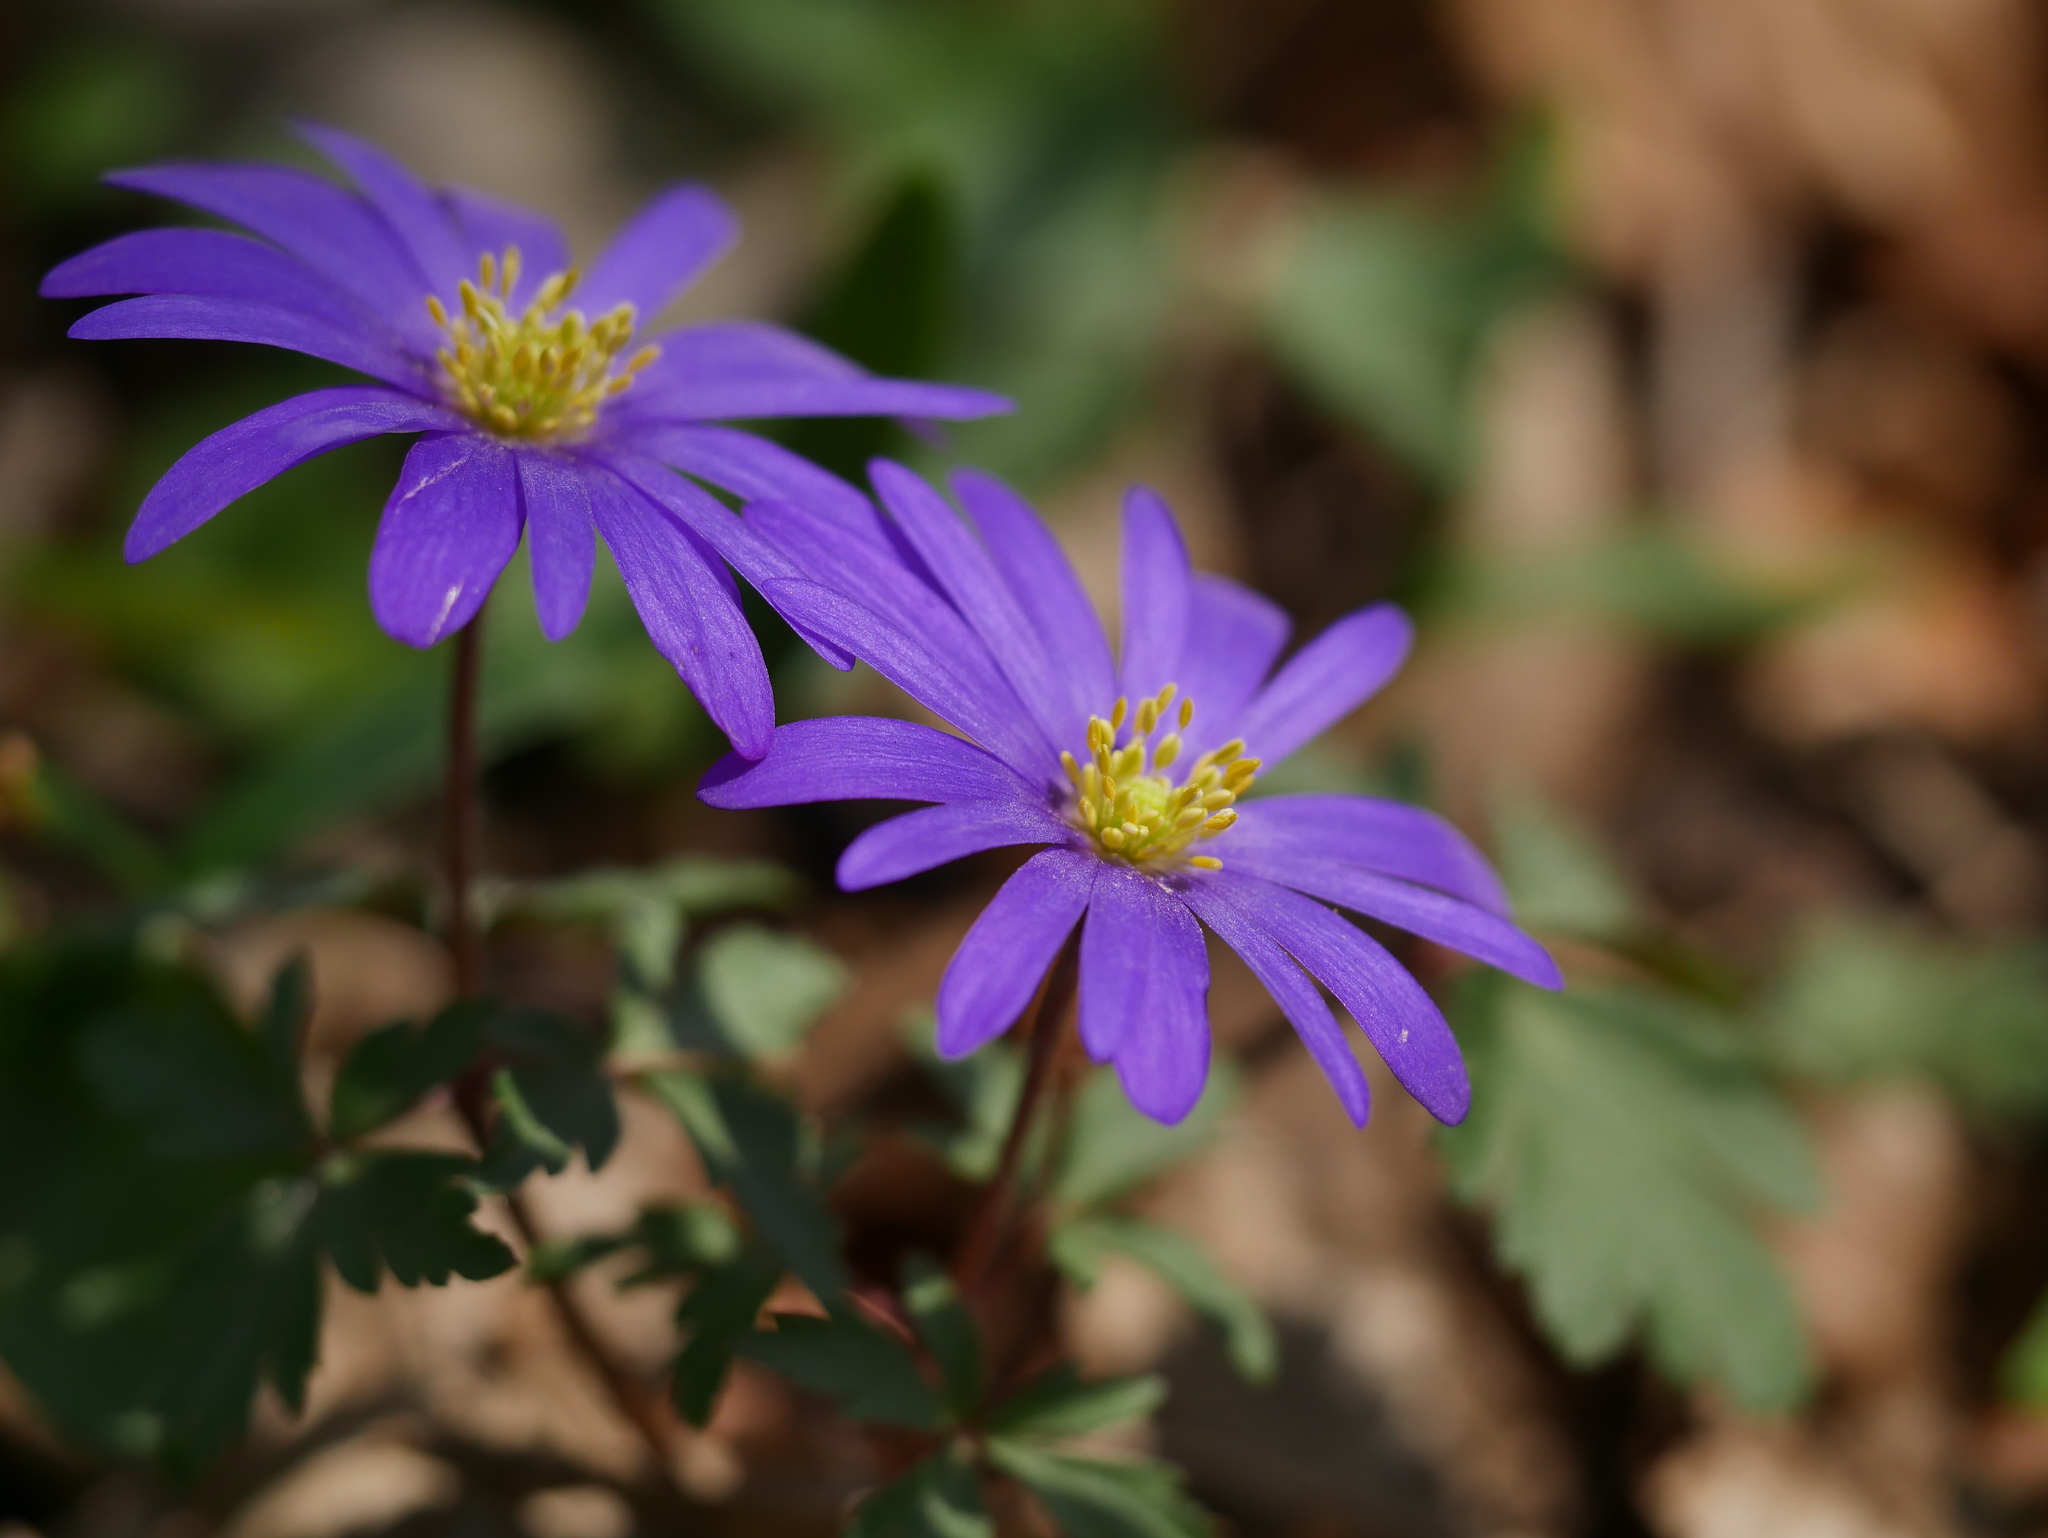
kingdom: Plantae
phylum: Tracheophyta
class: Magnoliopsida
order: Ranunculales
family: Ranunculaceae
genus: Anemone
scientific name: Anemone blanda
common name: Balkan anemone
